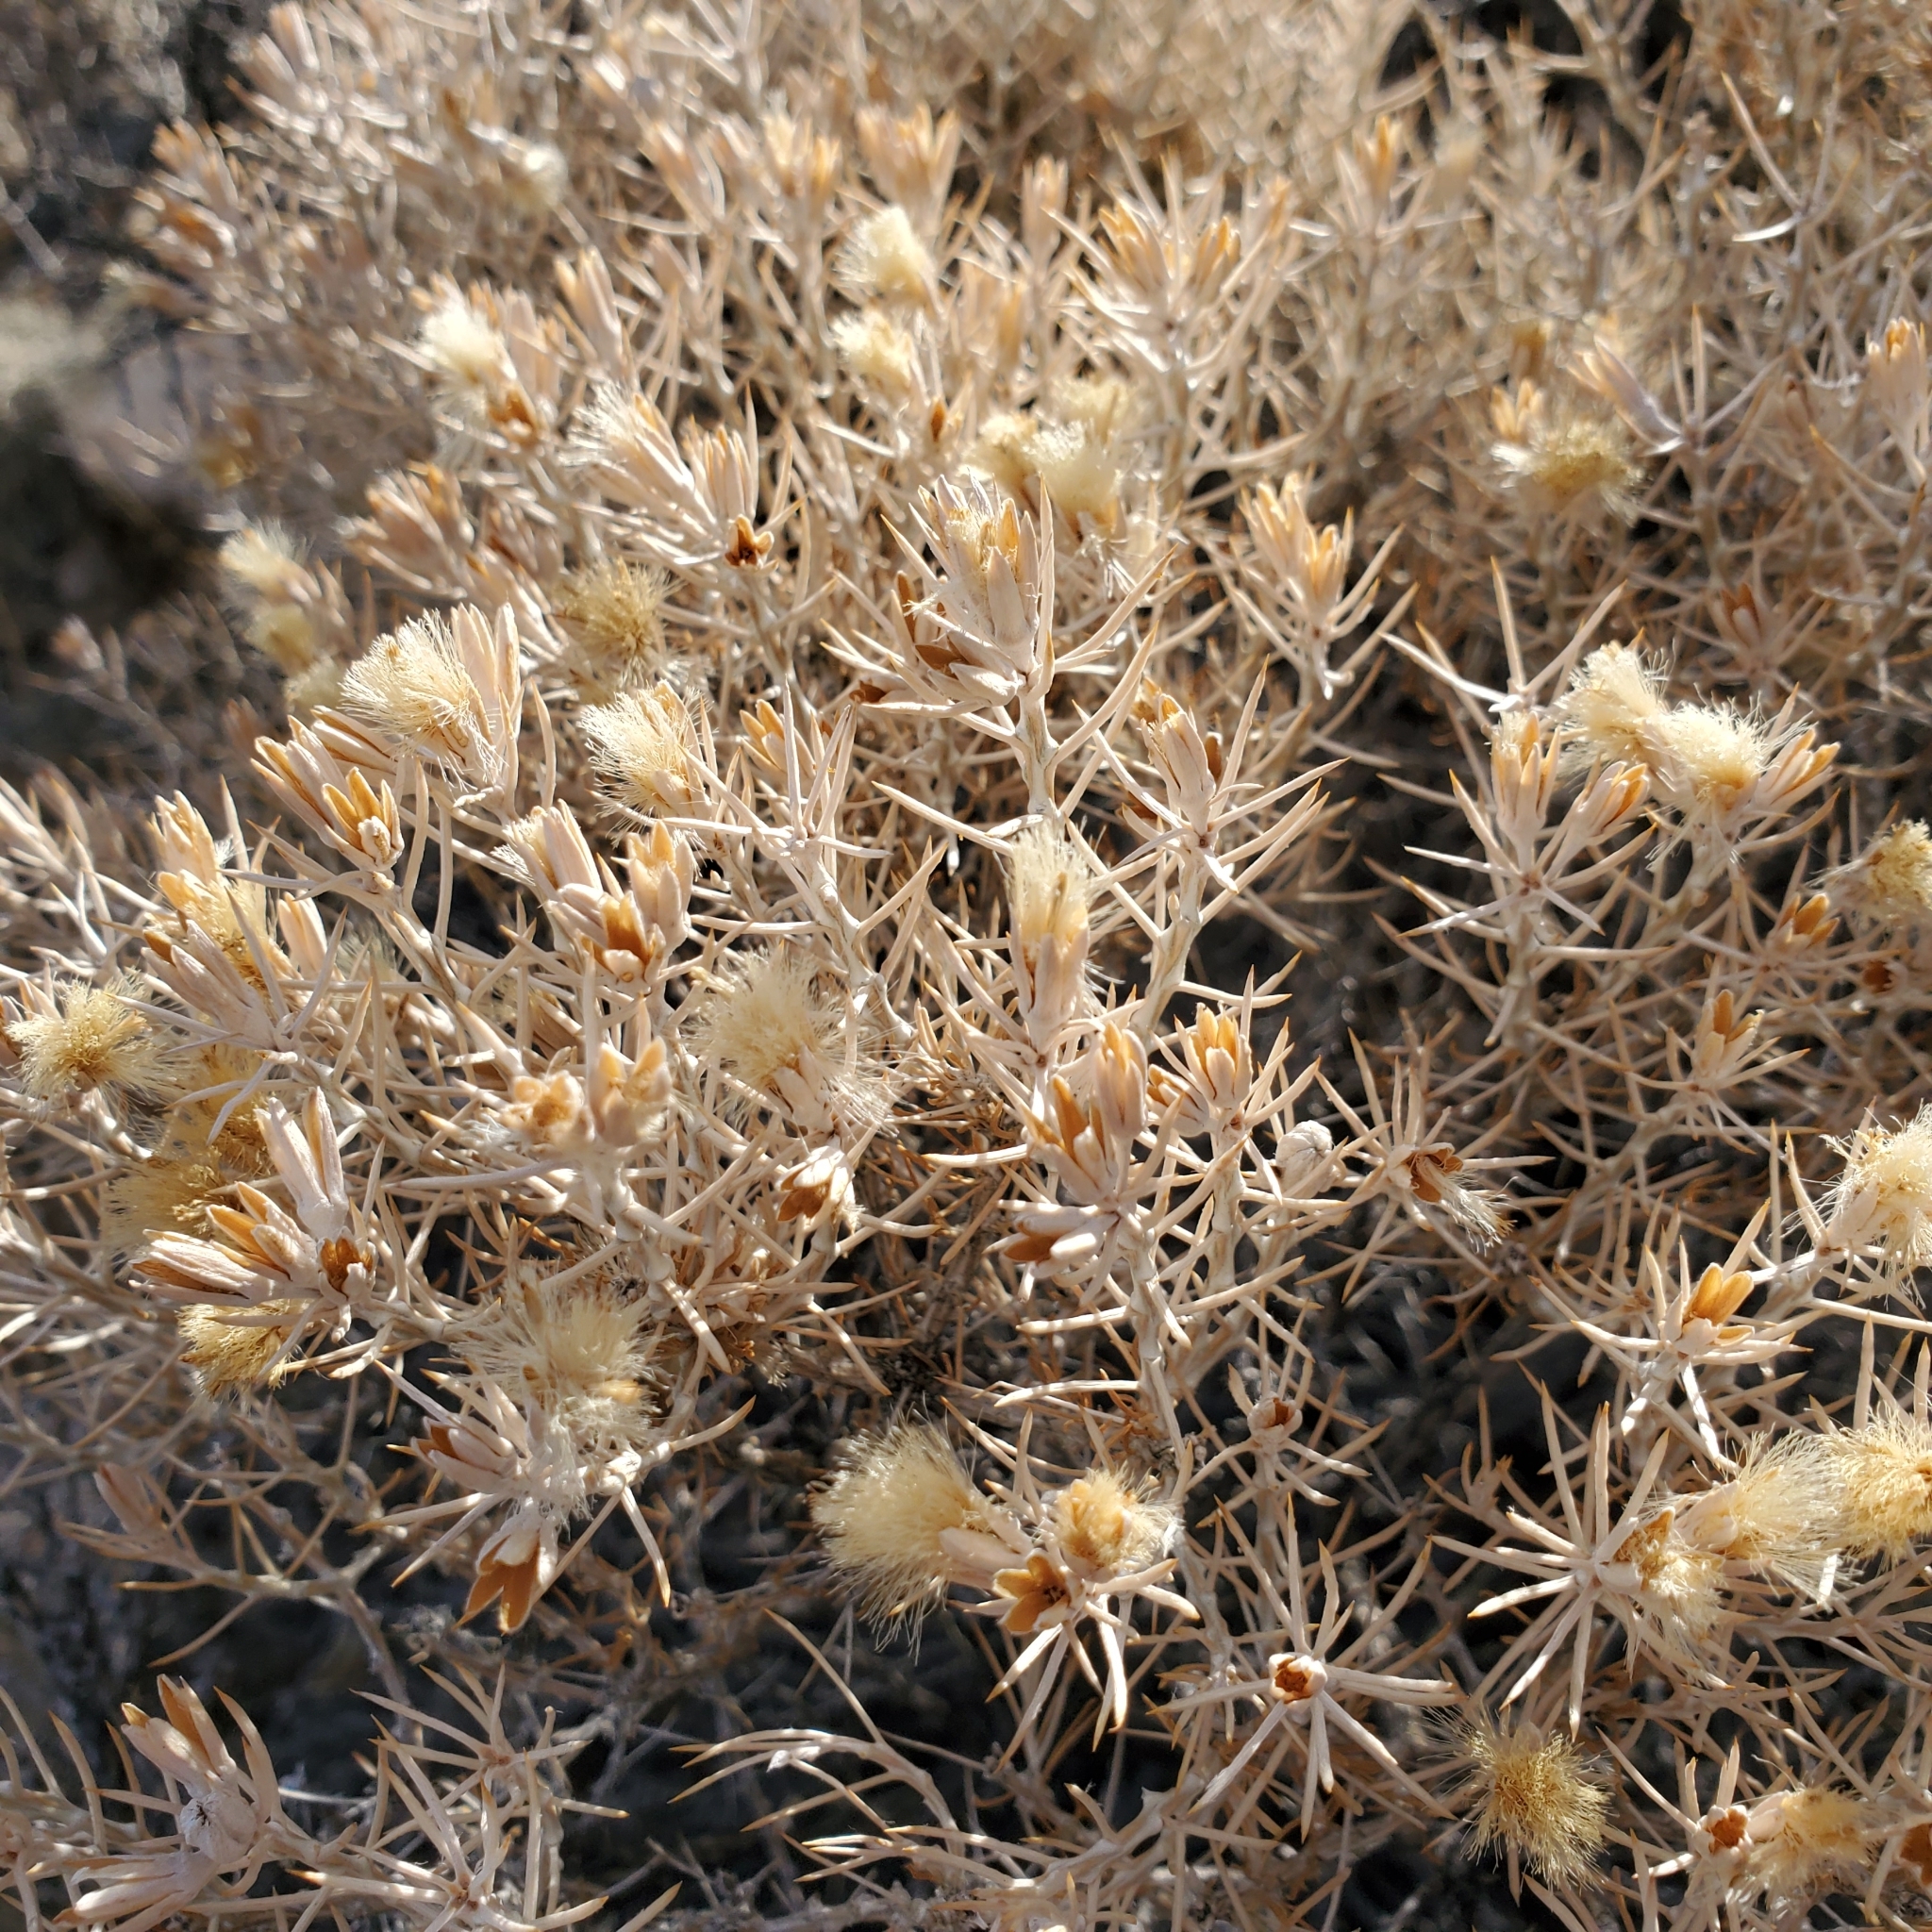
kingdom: Plantae
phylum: Tracheophyta
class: Magnoliopsida
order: Asterales
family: Asteraceae
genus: Tetradymia
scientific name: Tetradymia stenolepis
